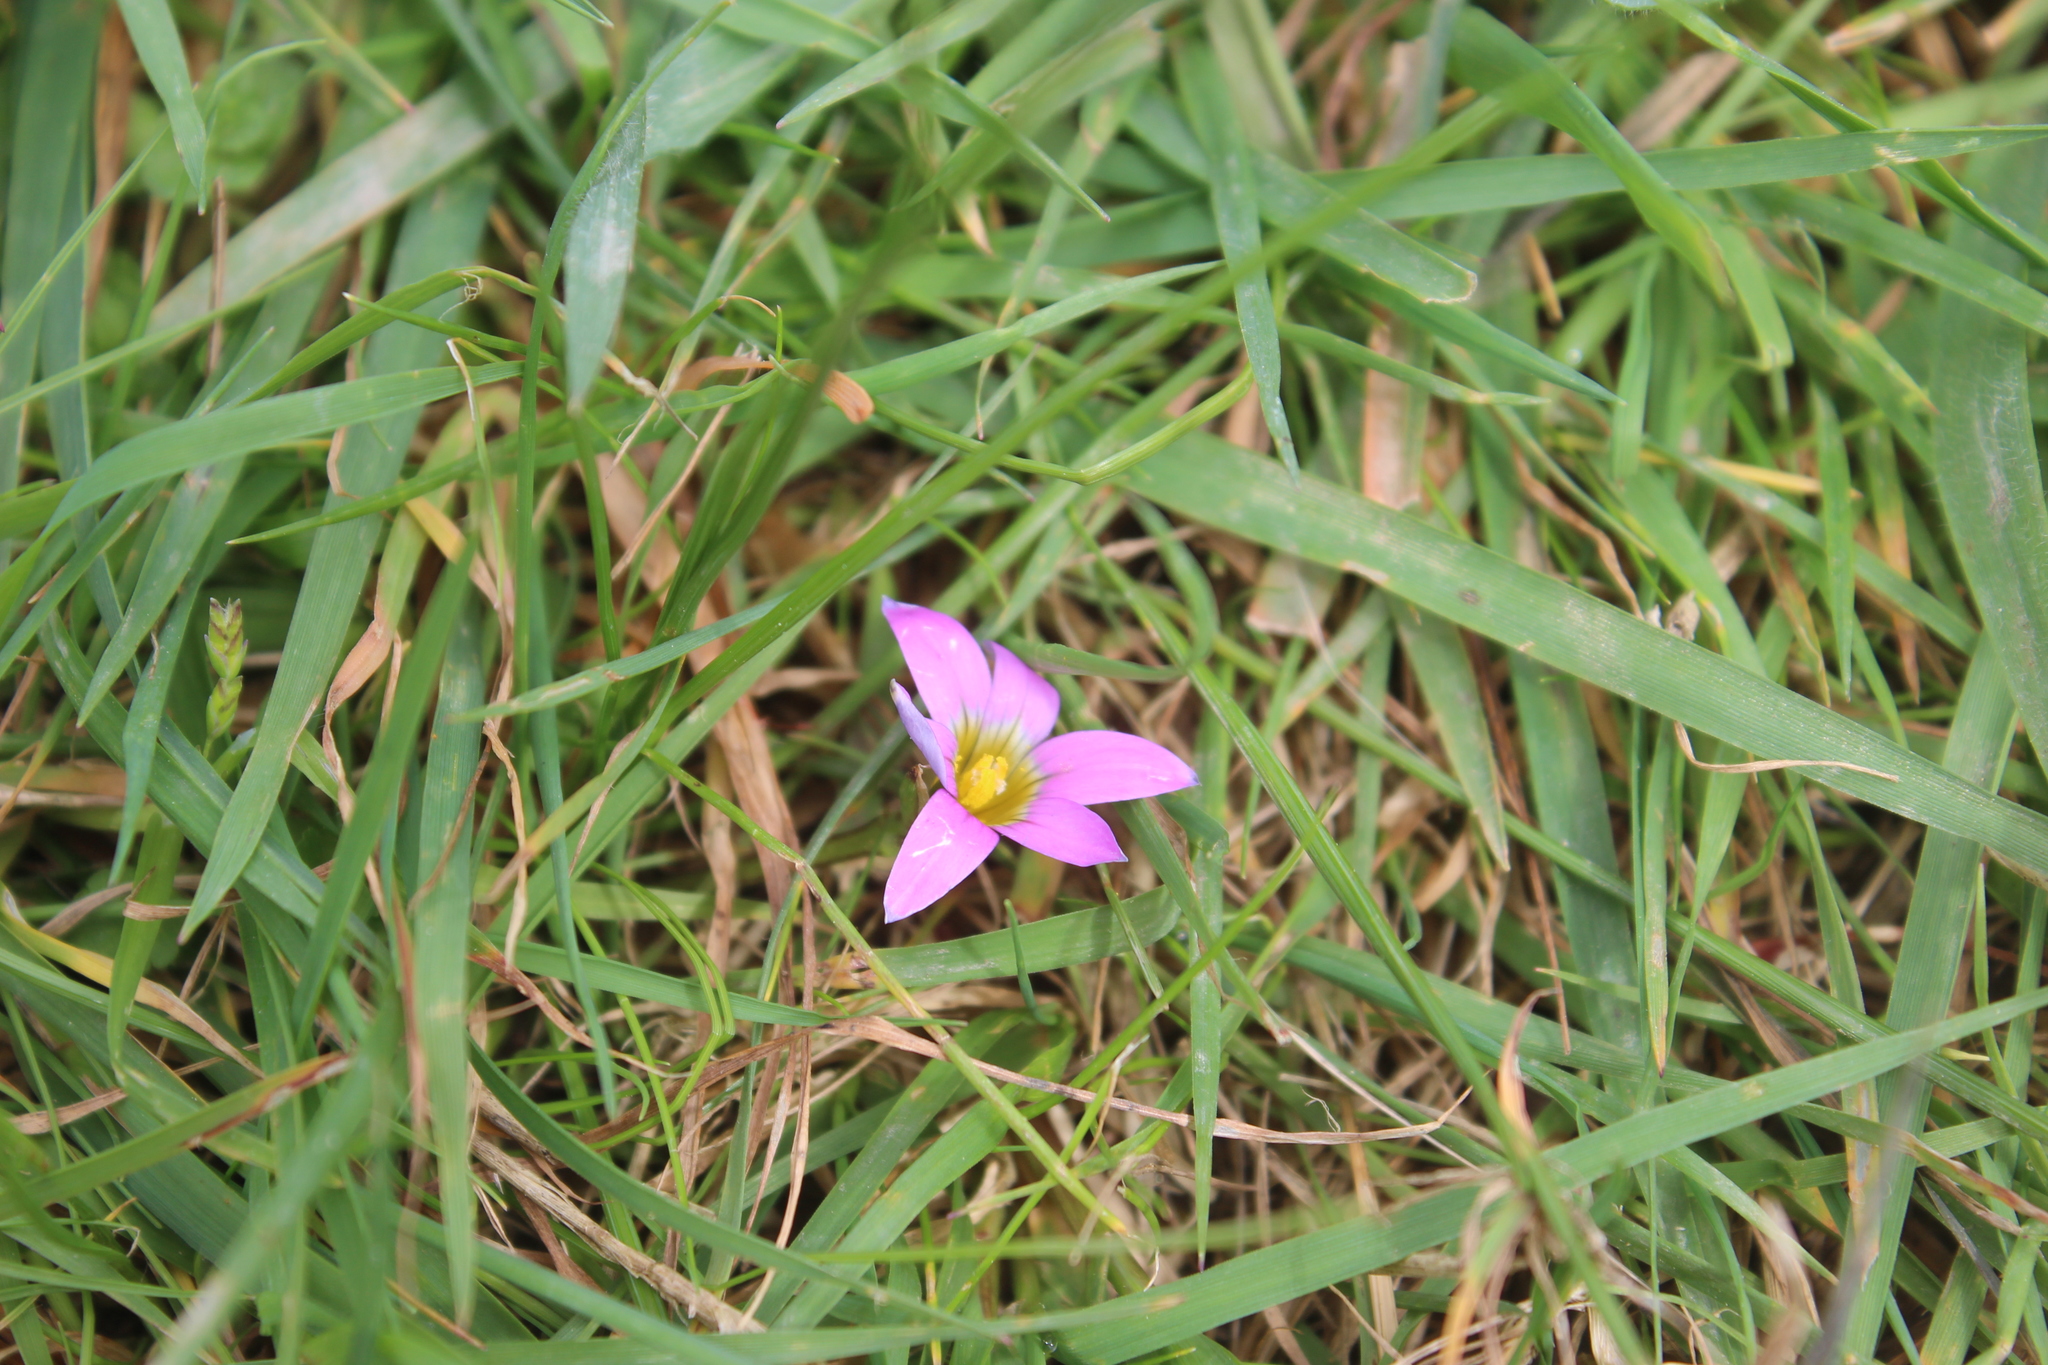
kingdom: Plantae
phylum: Tracheophyta
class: Liliopsida
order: Asparagales
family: Iridaceae
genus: Romulea
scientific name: Romulea rosea
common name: Oniongrass
